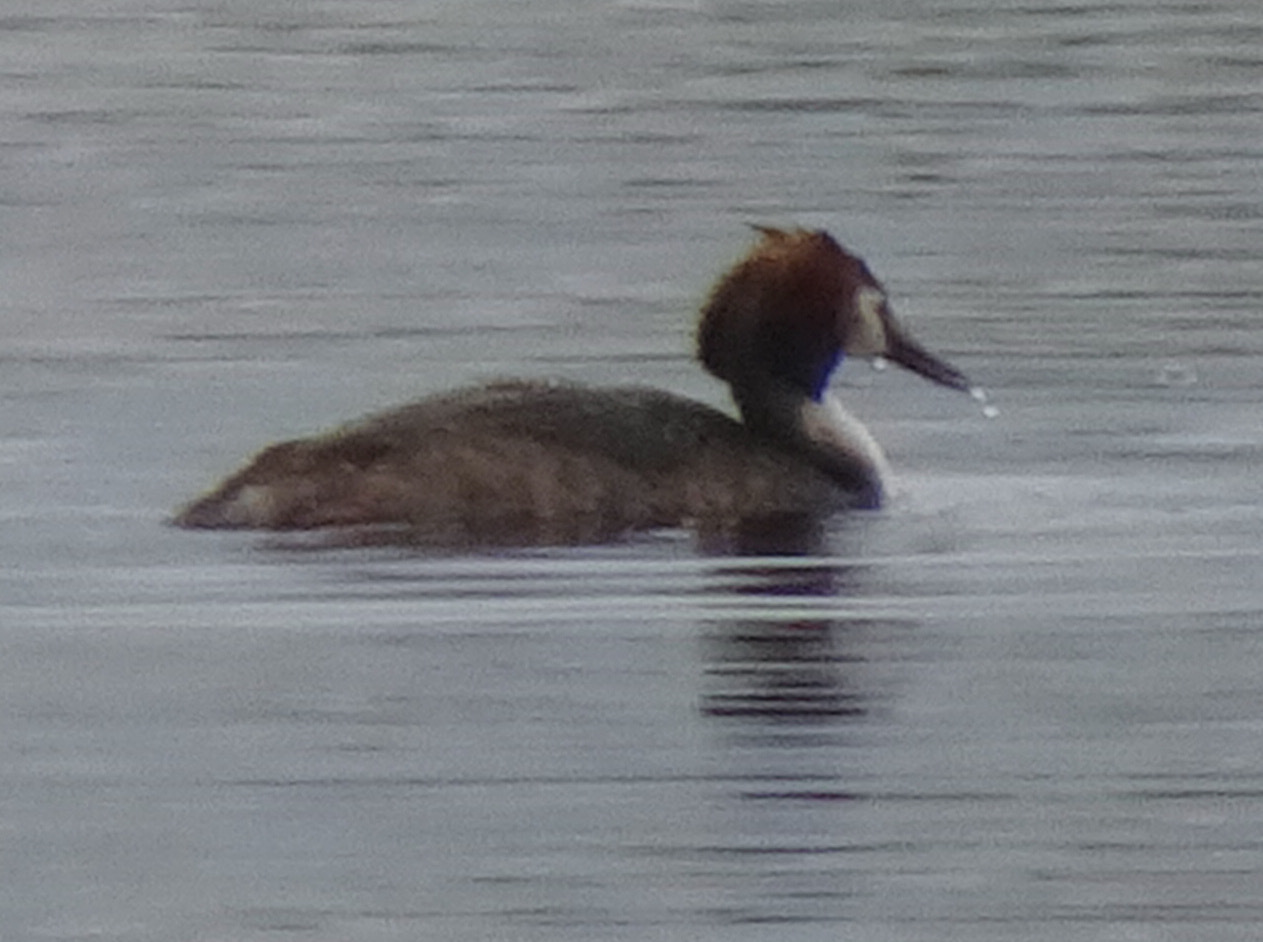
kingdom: Animalia
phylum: Chordata
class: Aves
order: Podicipediformes
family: Podicipedidae
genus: Podiceps
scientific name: Podiceps cristatus
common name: Great crested grebe
